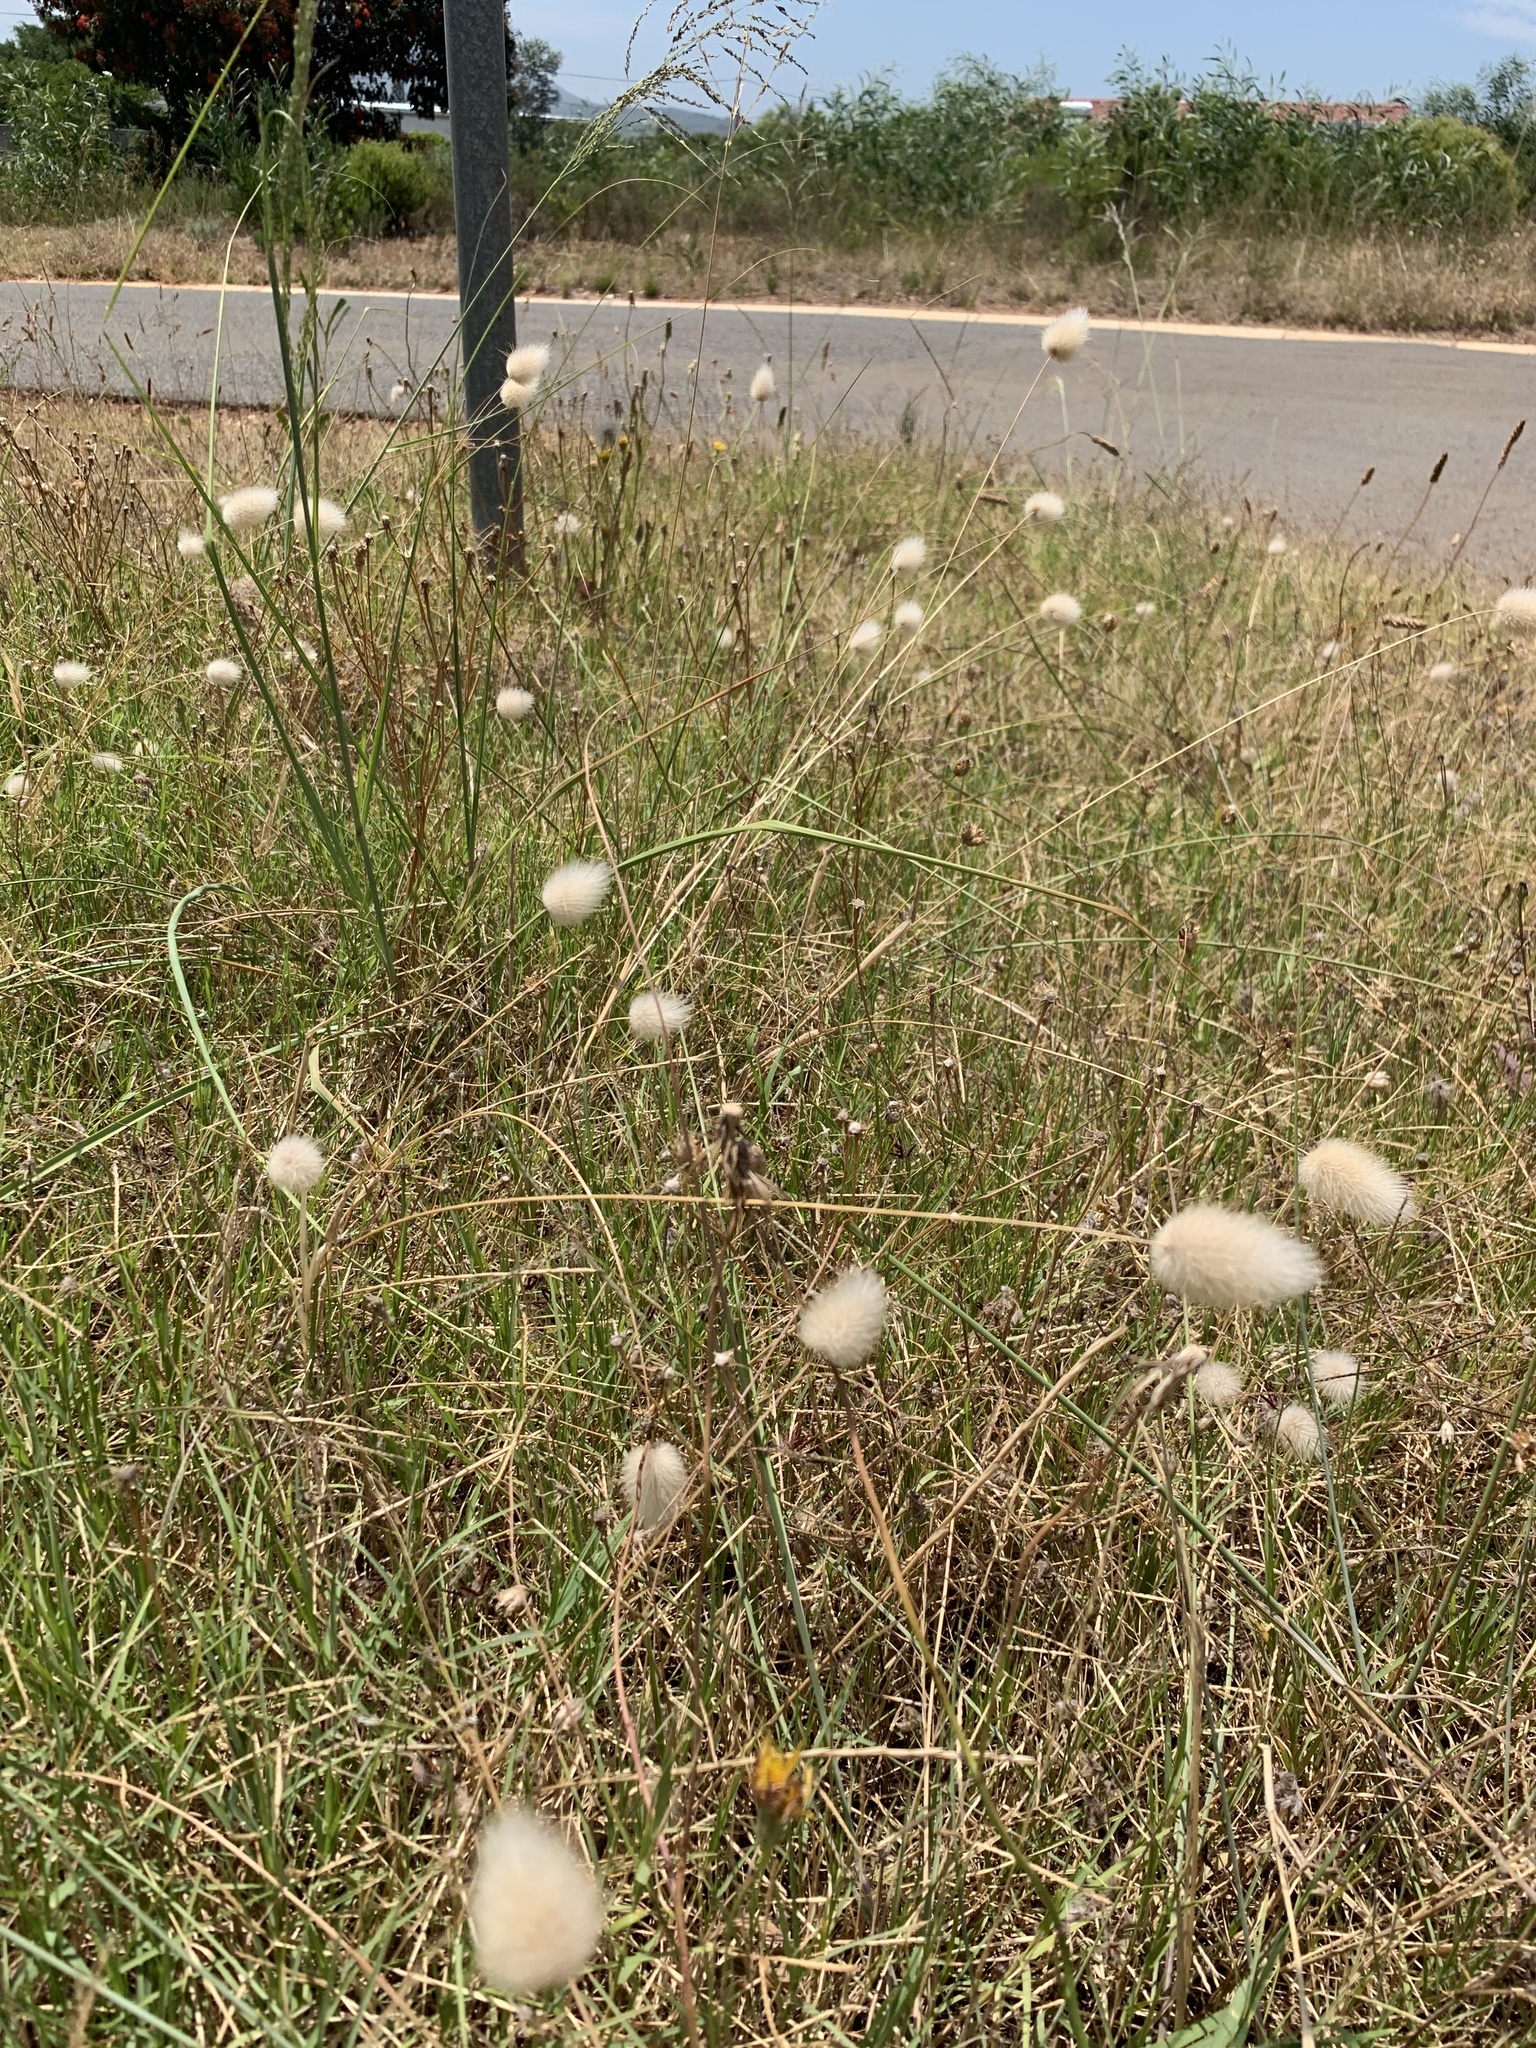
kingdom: Plantae
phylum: Tracheophyta
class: Liliopsida
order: Poales
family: Poaceae
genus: Lagurus
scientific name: Lagurus ovatus
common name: Hare's-tail
